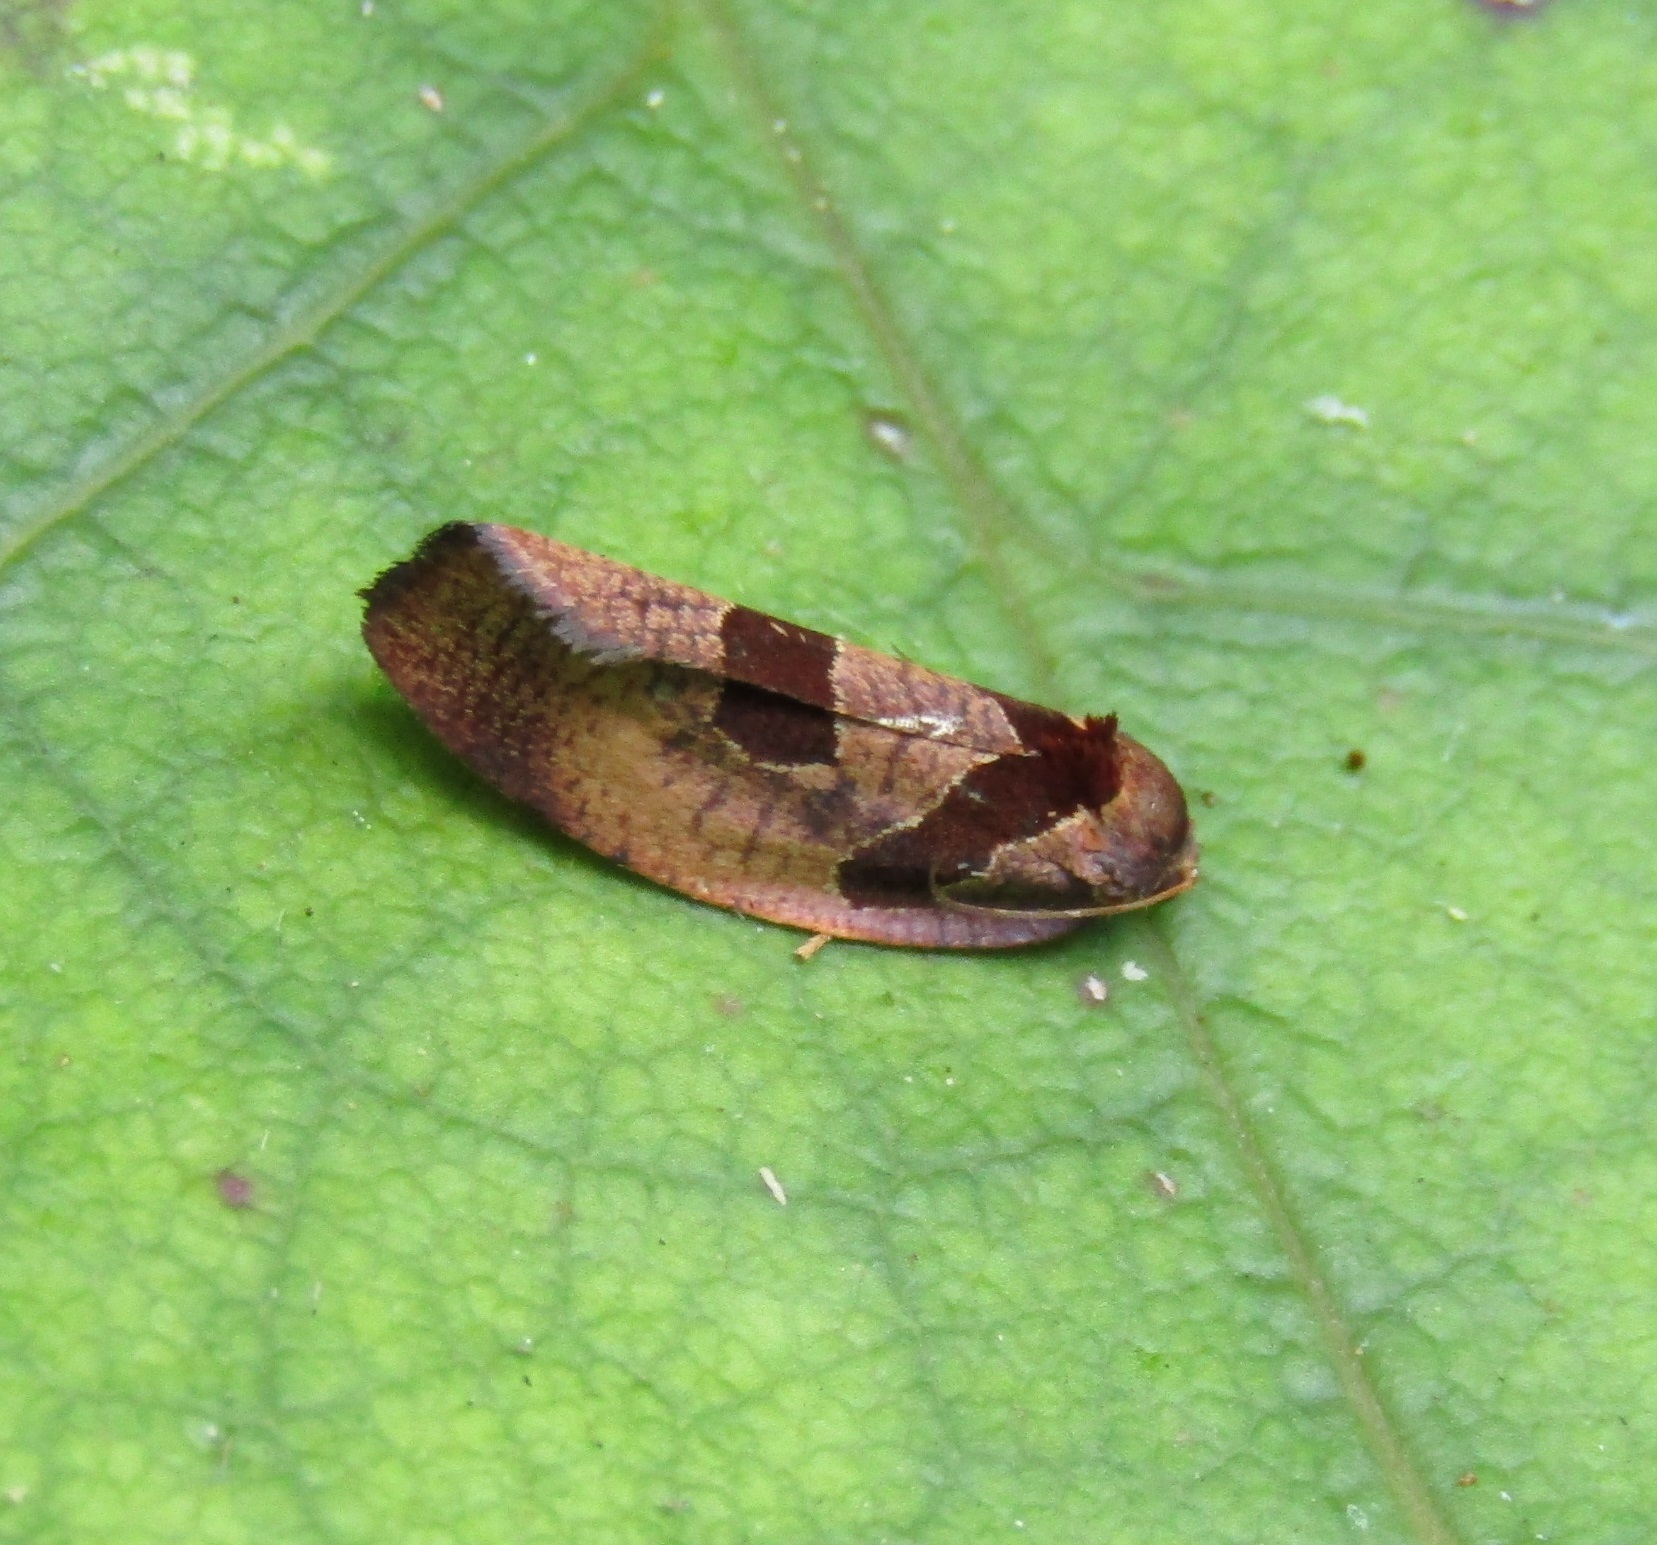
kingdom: Animalia
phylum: Arthropoda
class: Insecta
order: Lepidoptera
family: Tortricidae
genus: Ochetarcha
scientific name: Ochetarcha
